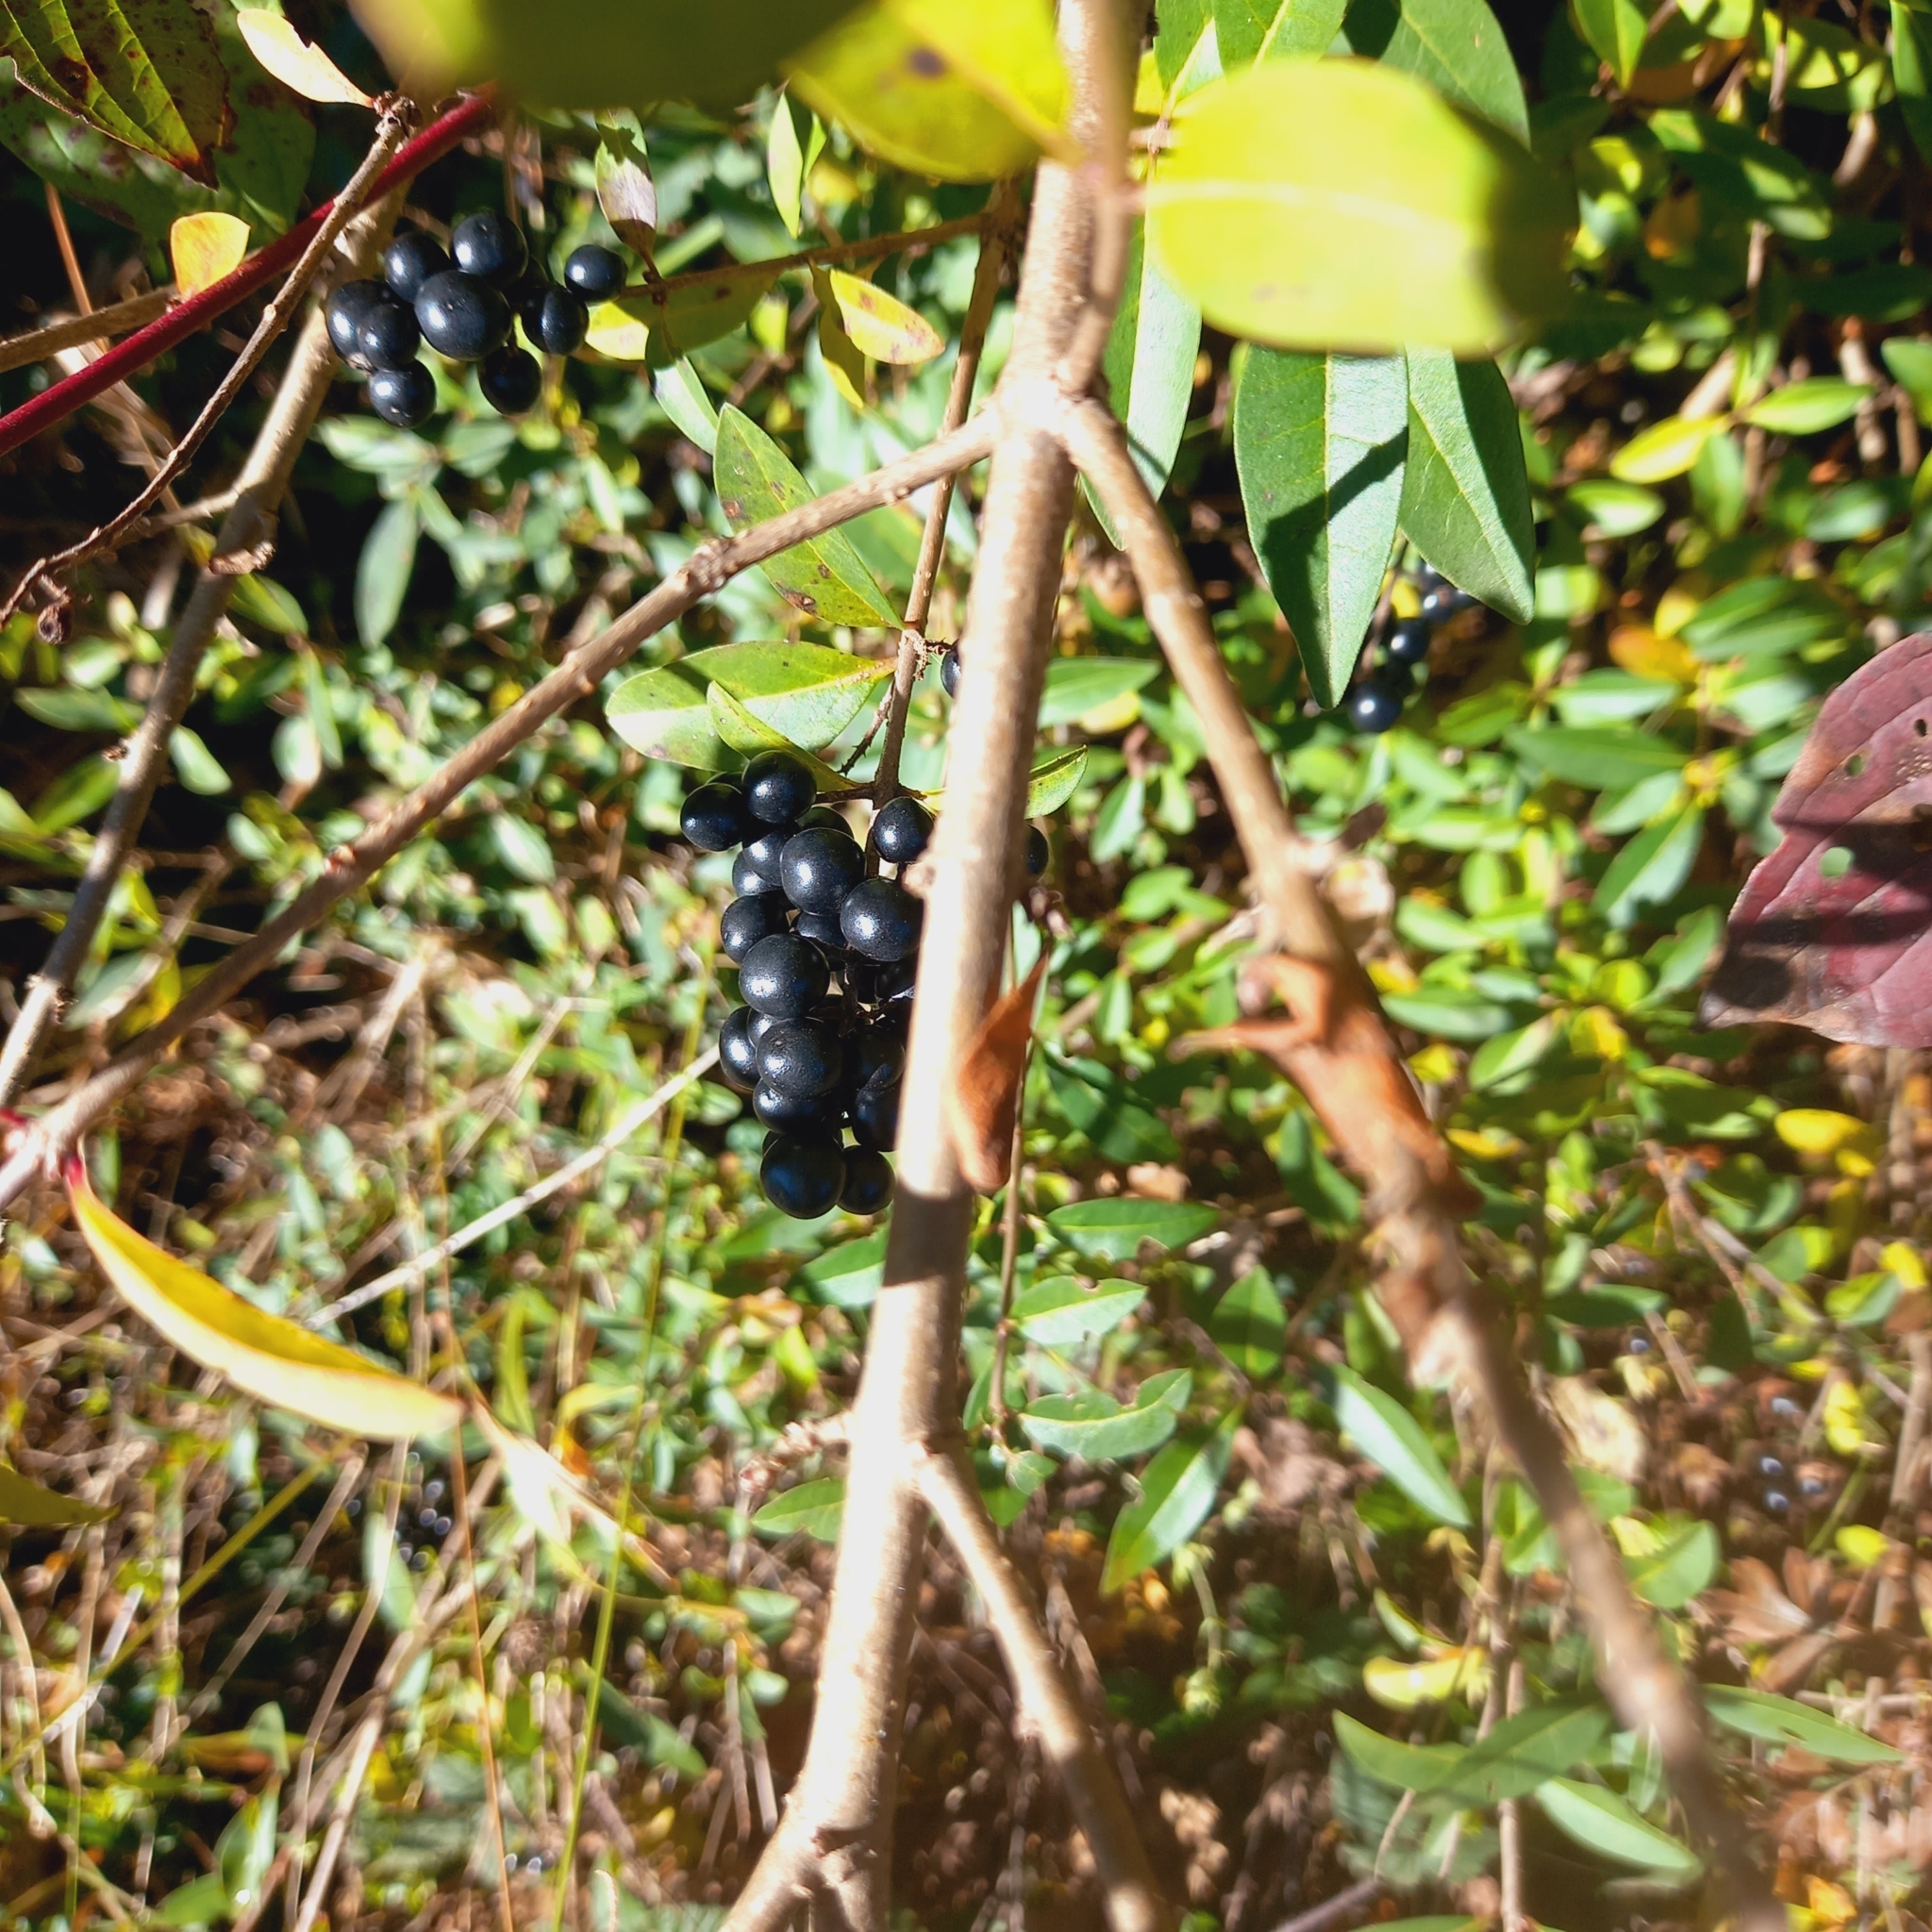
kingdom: Plantae
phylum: Tracheophyta
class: Magnoliopsida
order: Lamiales
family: Oleaceae
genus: Ligustrum
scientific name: Ligustrum vulgare
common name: Wild privet
